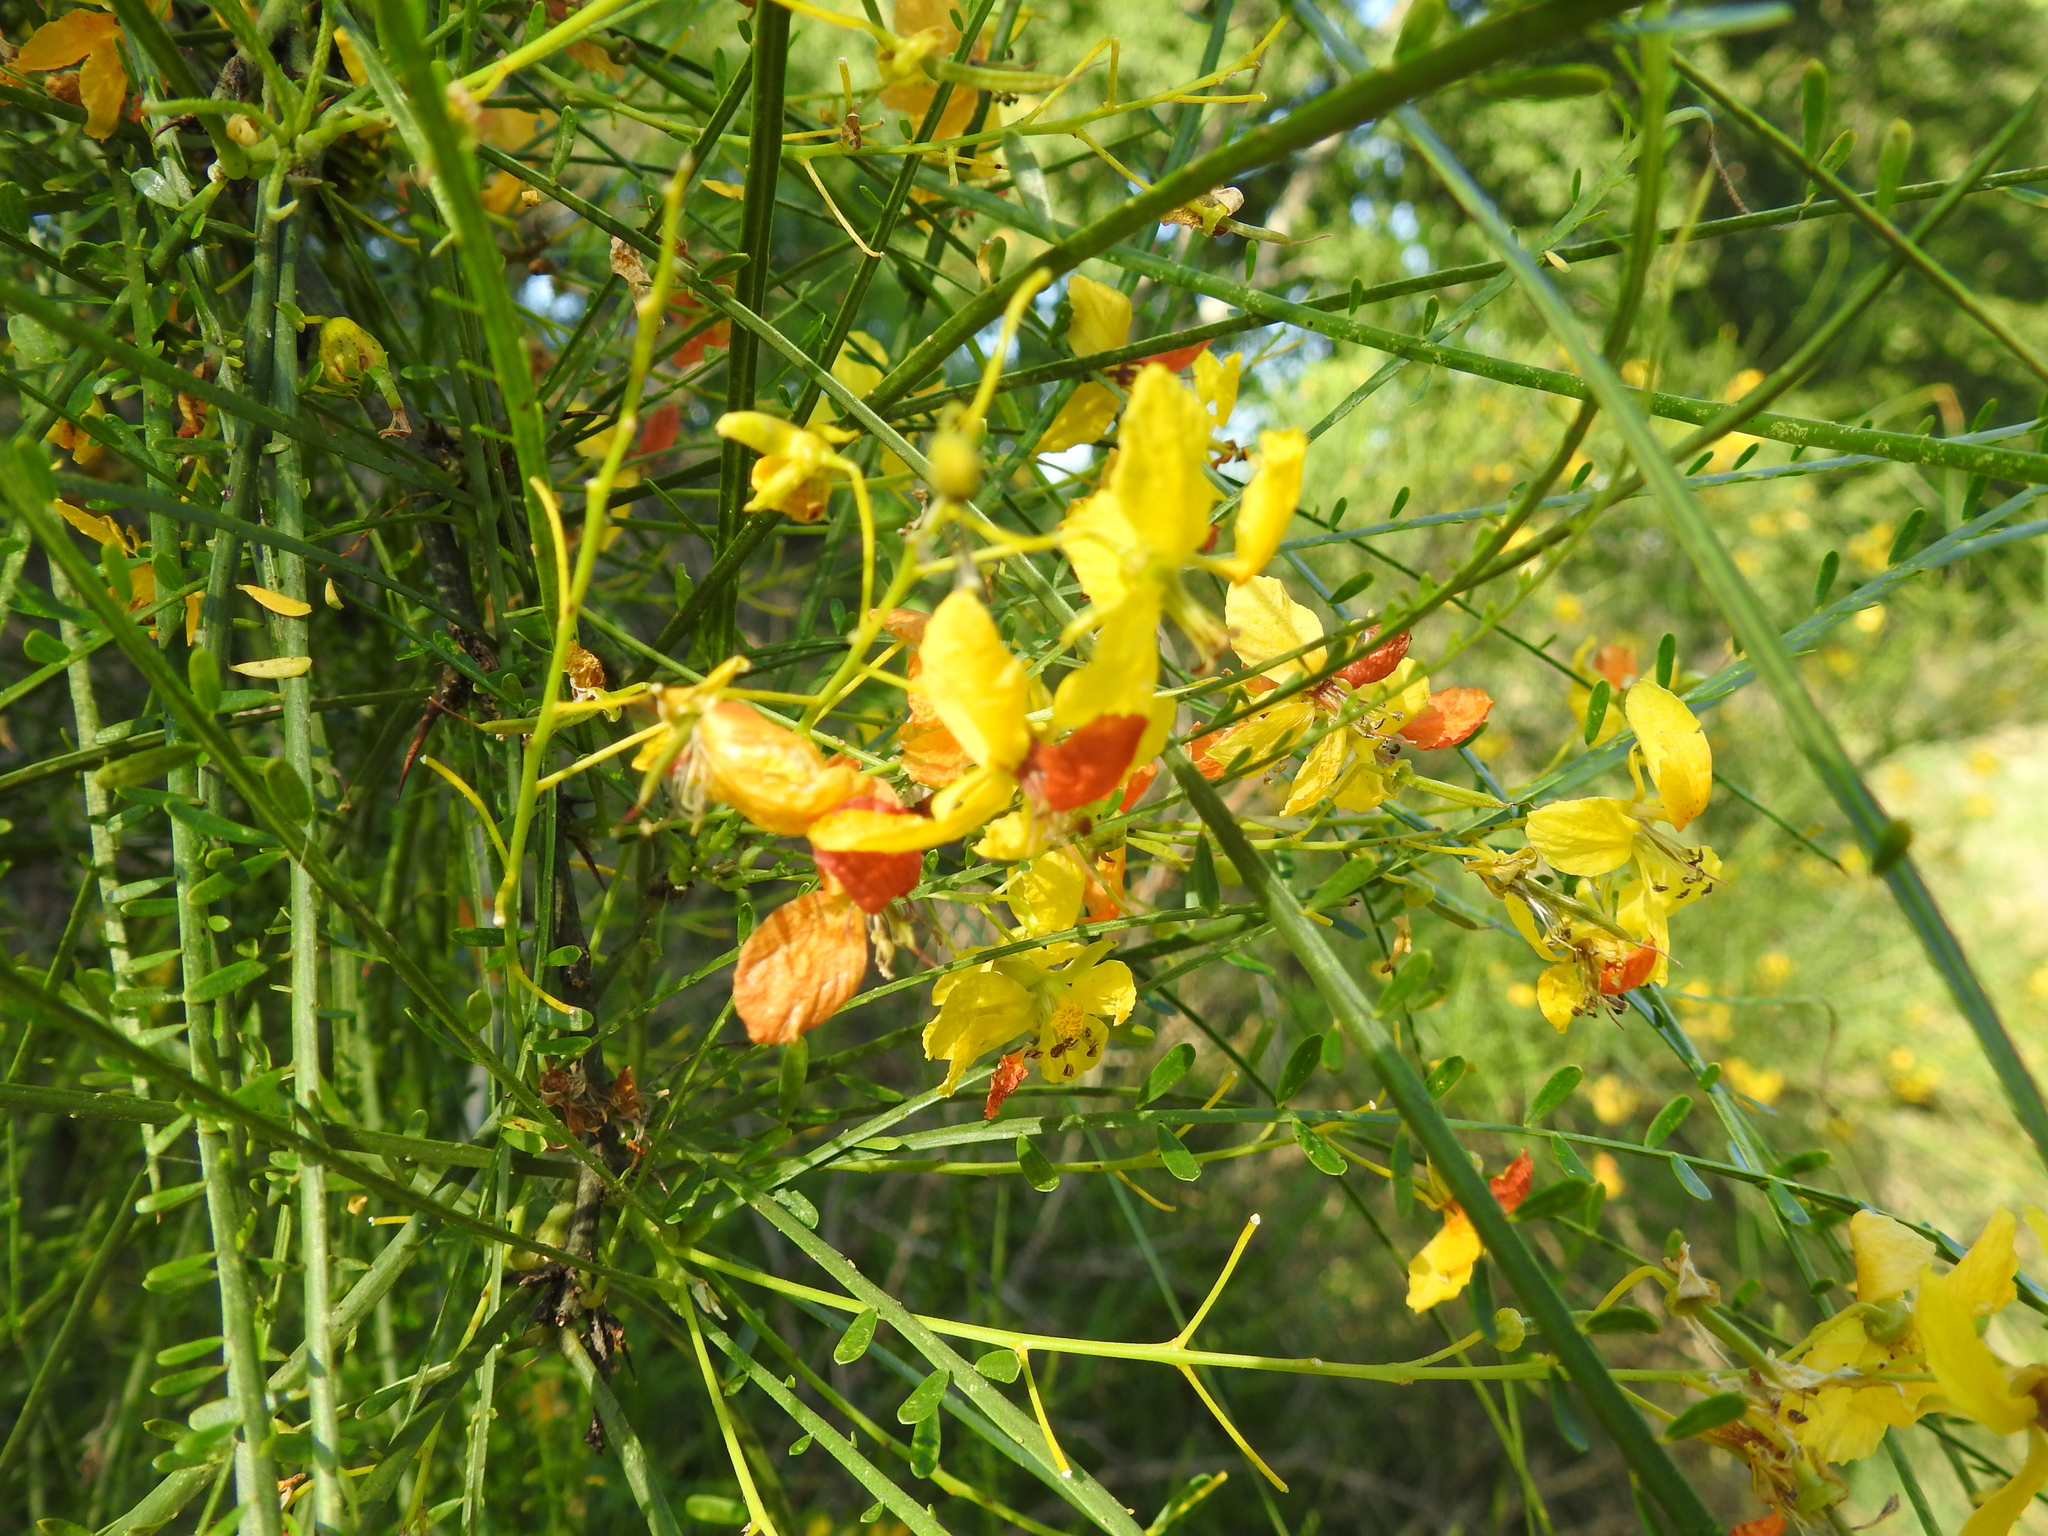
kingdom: Plantae
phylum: Tracheophyta
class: Magnoliopsida
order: Fabales
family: Fabaceae
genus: Parkinsonia
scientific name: Parkinsonia aculeata
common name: Jerusalem thorn
